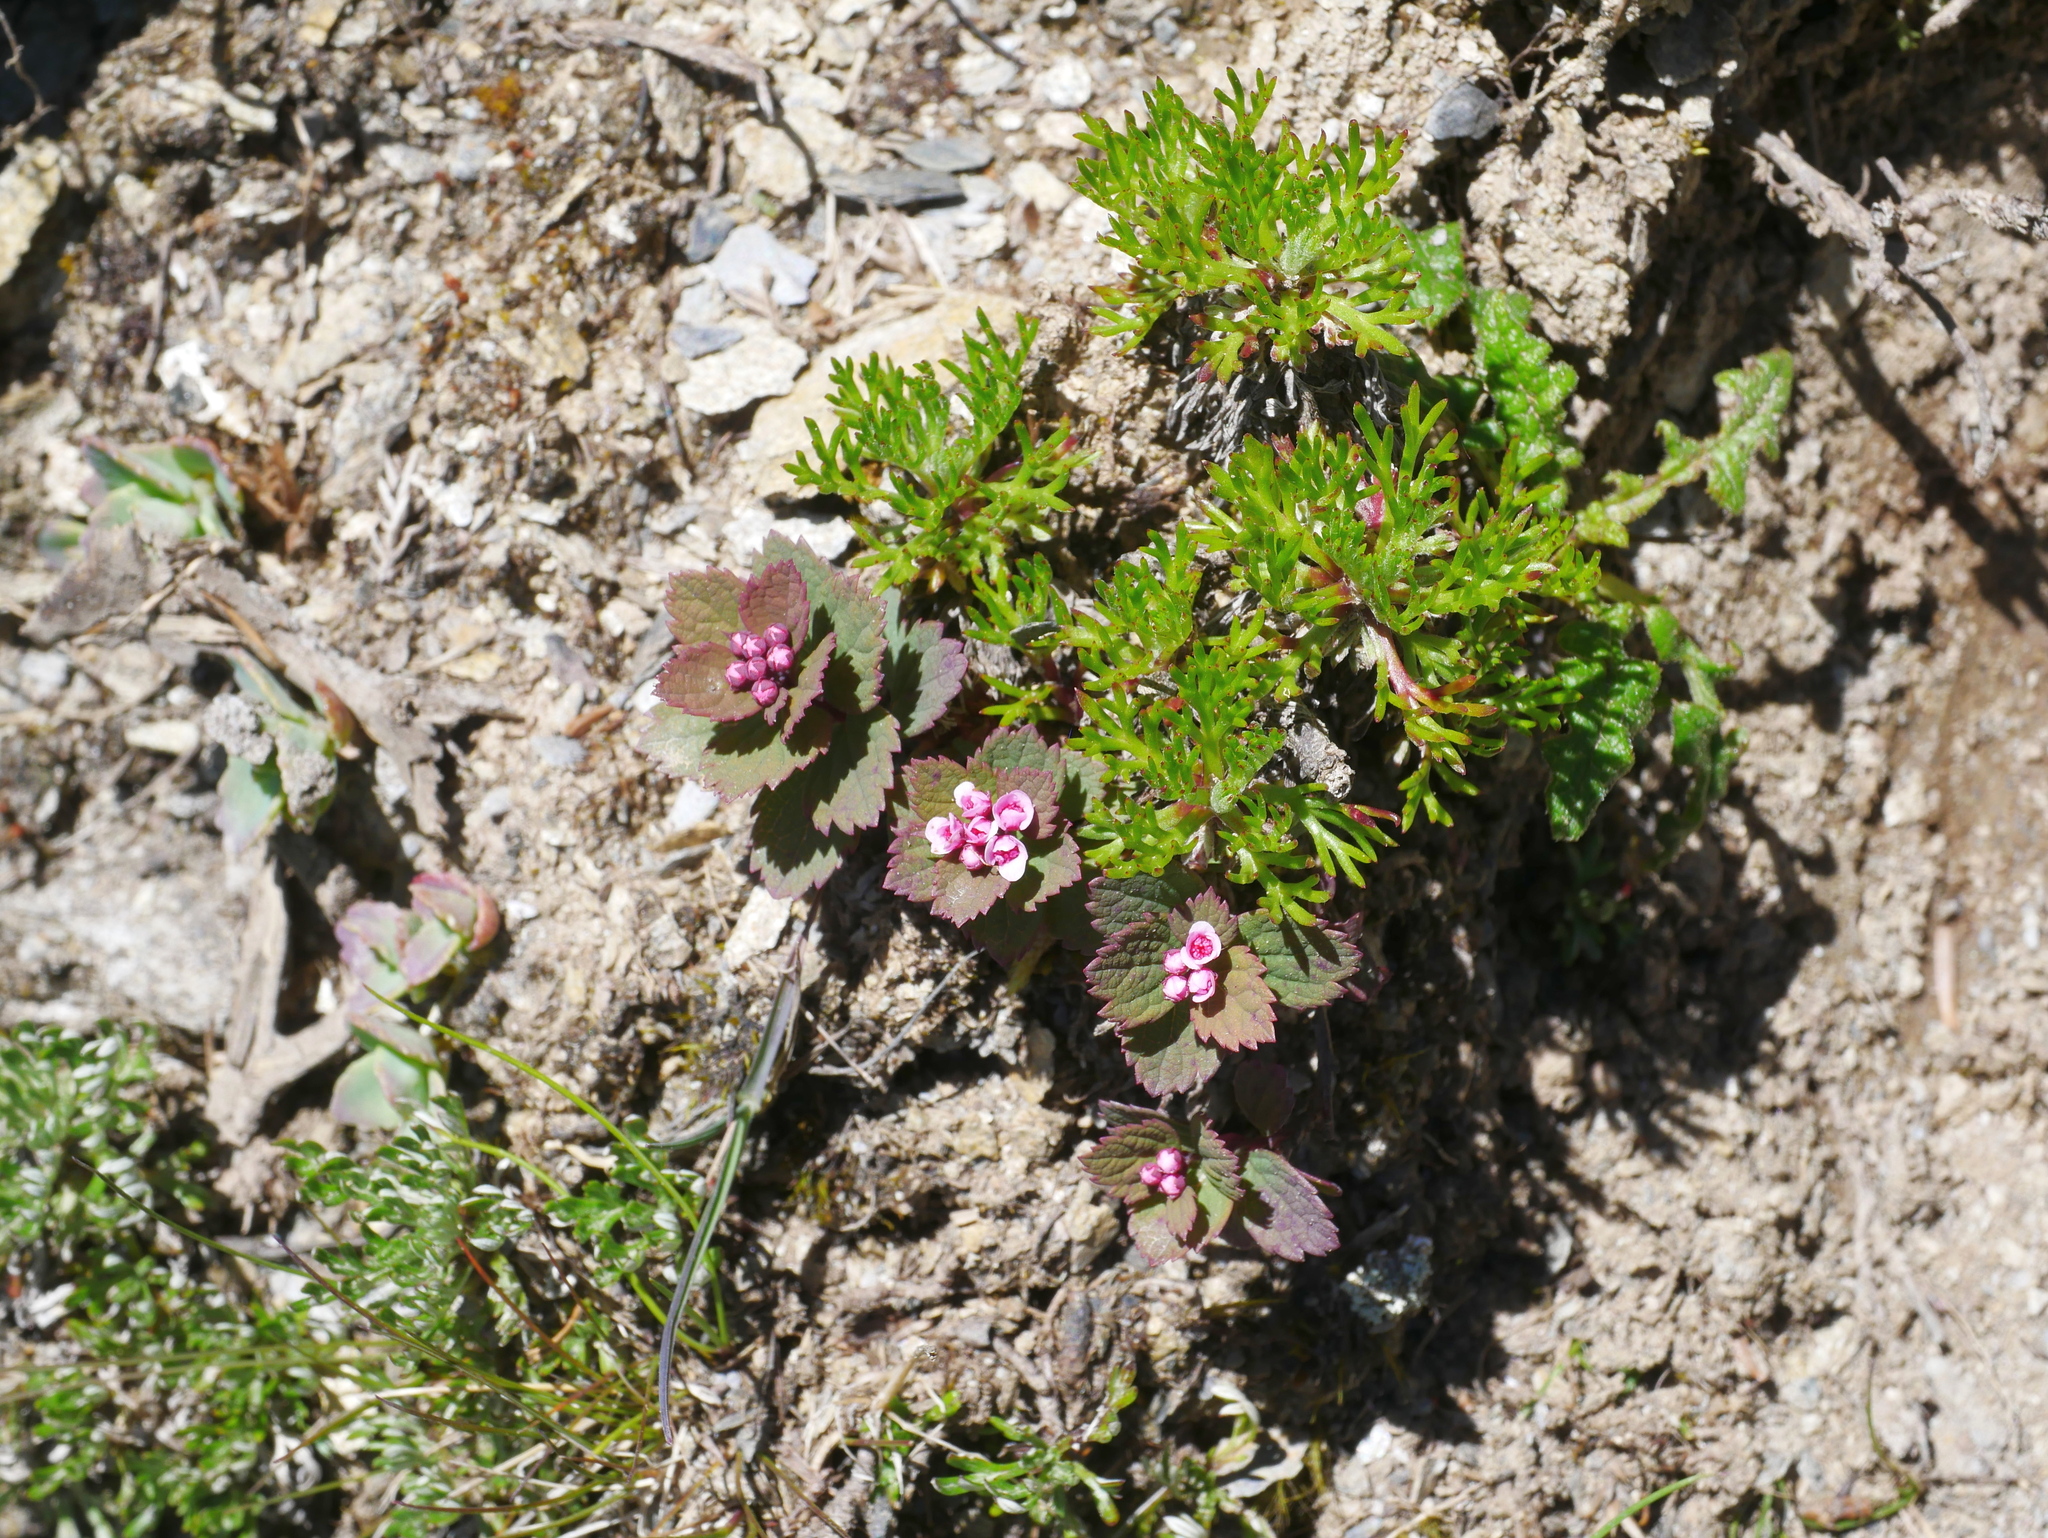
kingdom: Plantae
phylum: Tracheophyta
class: Magnoliopsida
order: Rosales
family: Rosaceae
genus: Spiraea
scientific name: Spiraea morrisonicola
